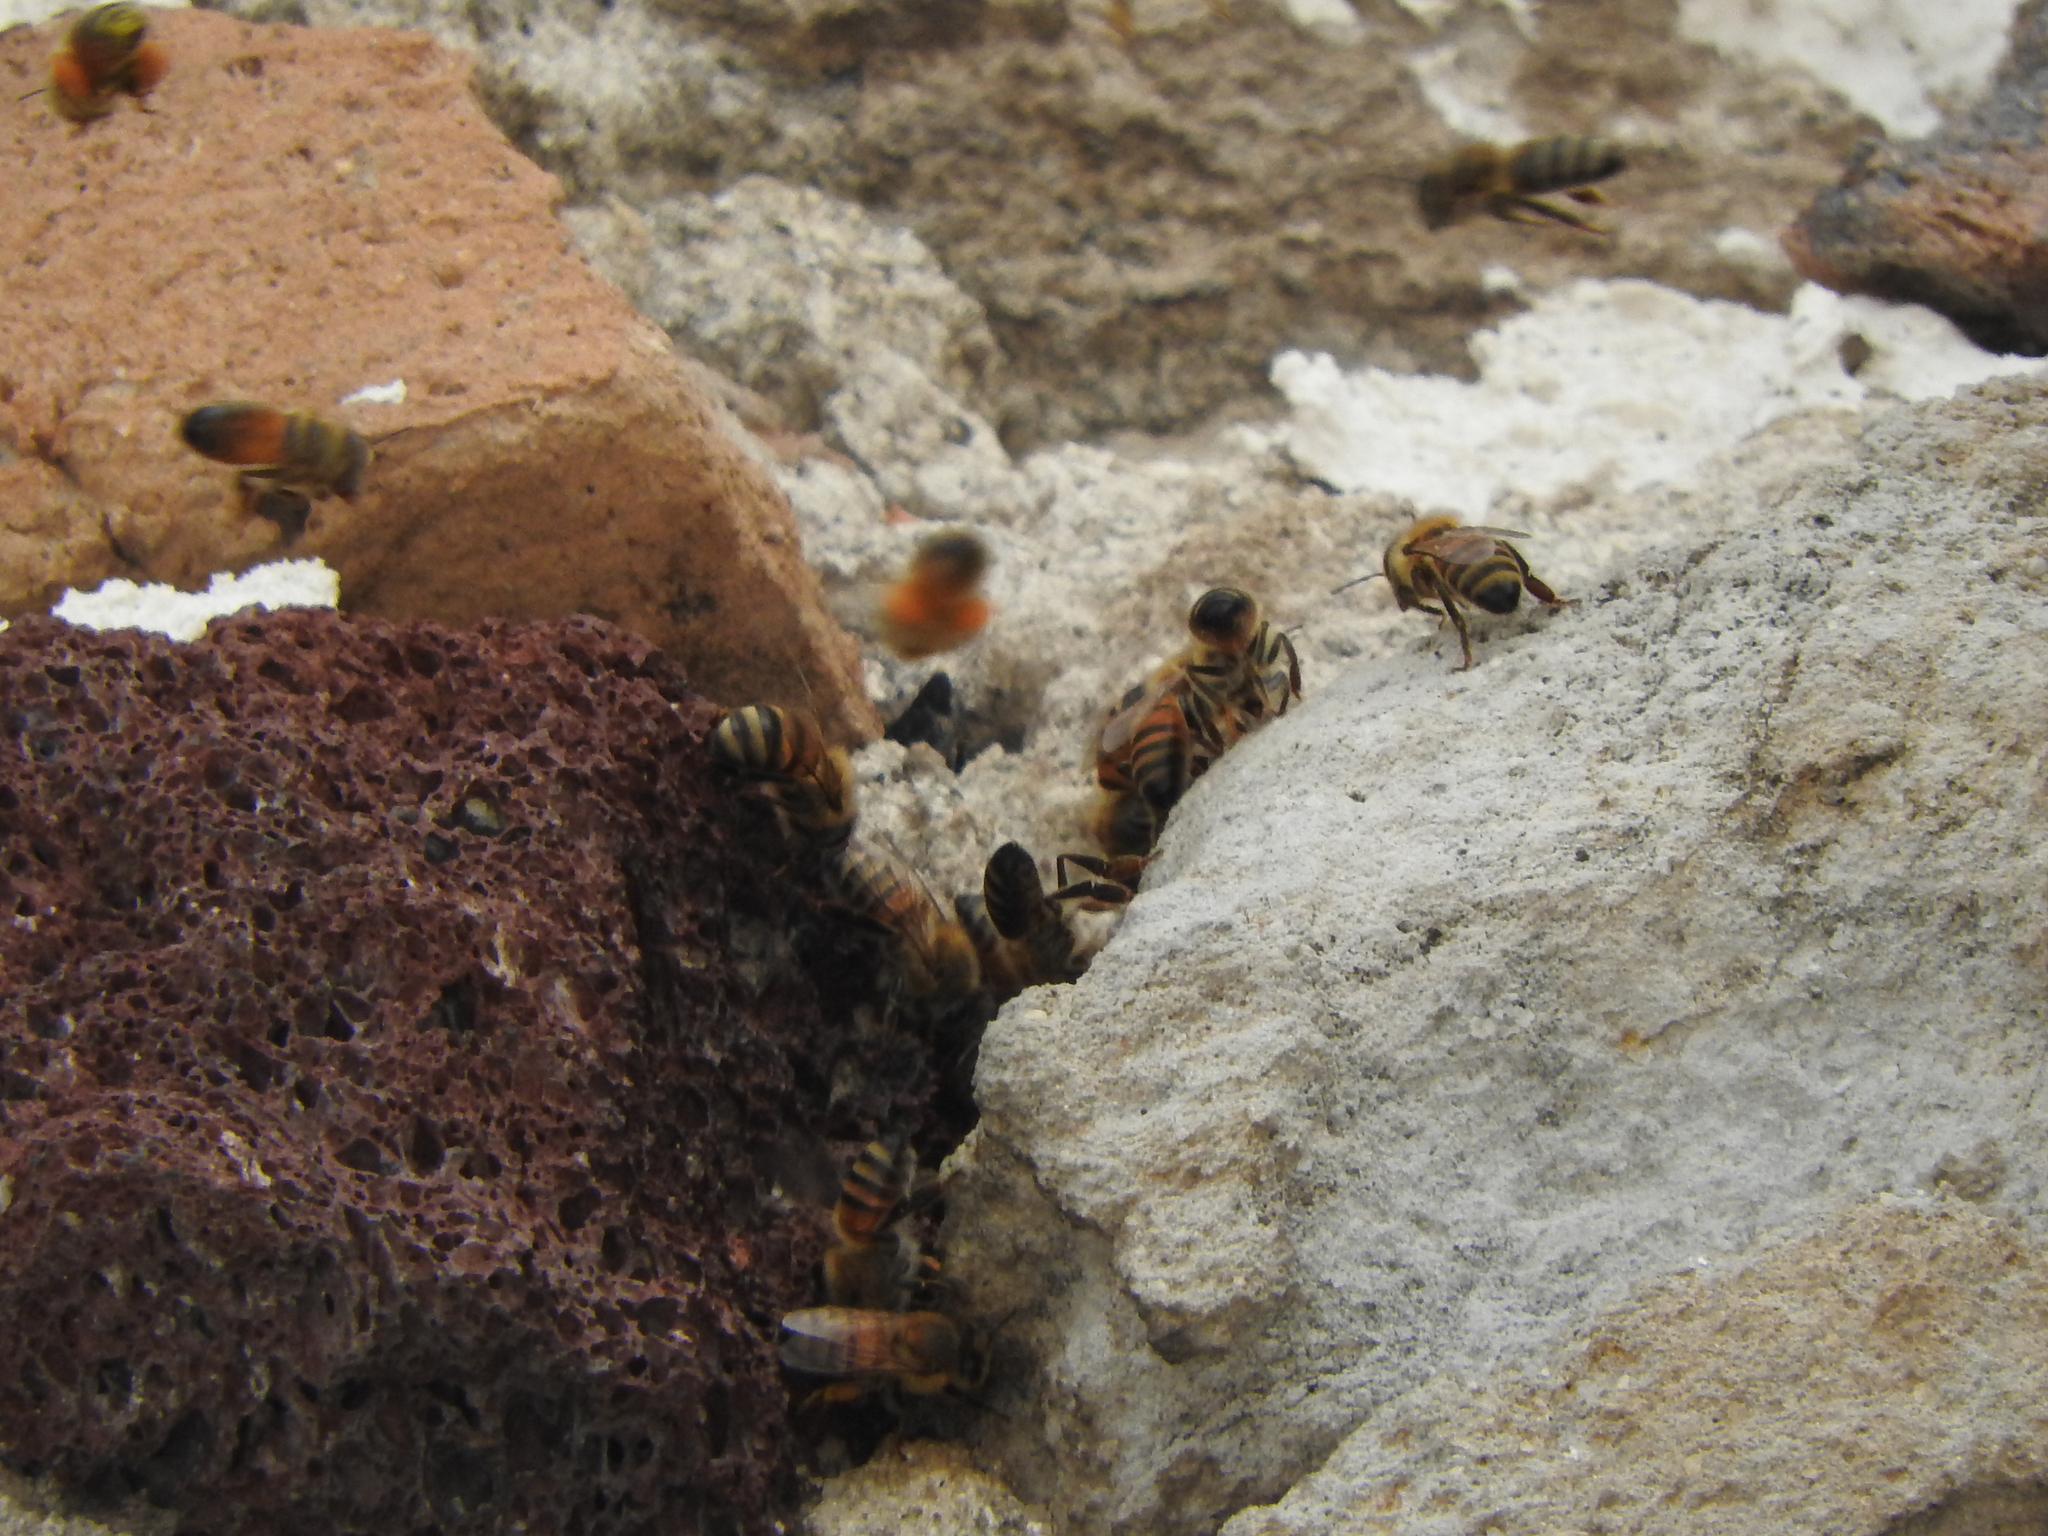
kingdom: Animalia
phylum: Arthropoda
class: Insecta
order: Hymenoptera
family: Apidae
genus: Apis
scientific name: Apis mellifera
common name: Honey bee
